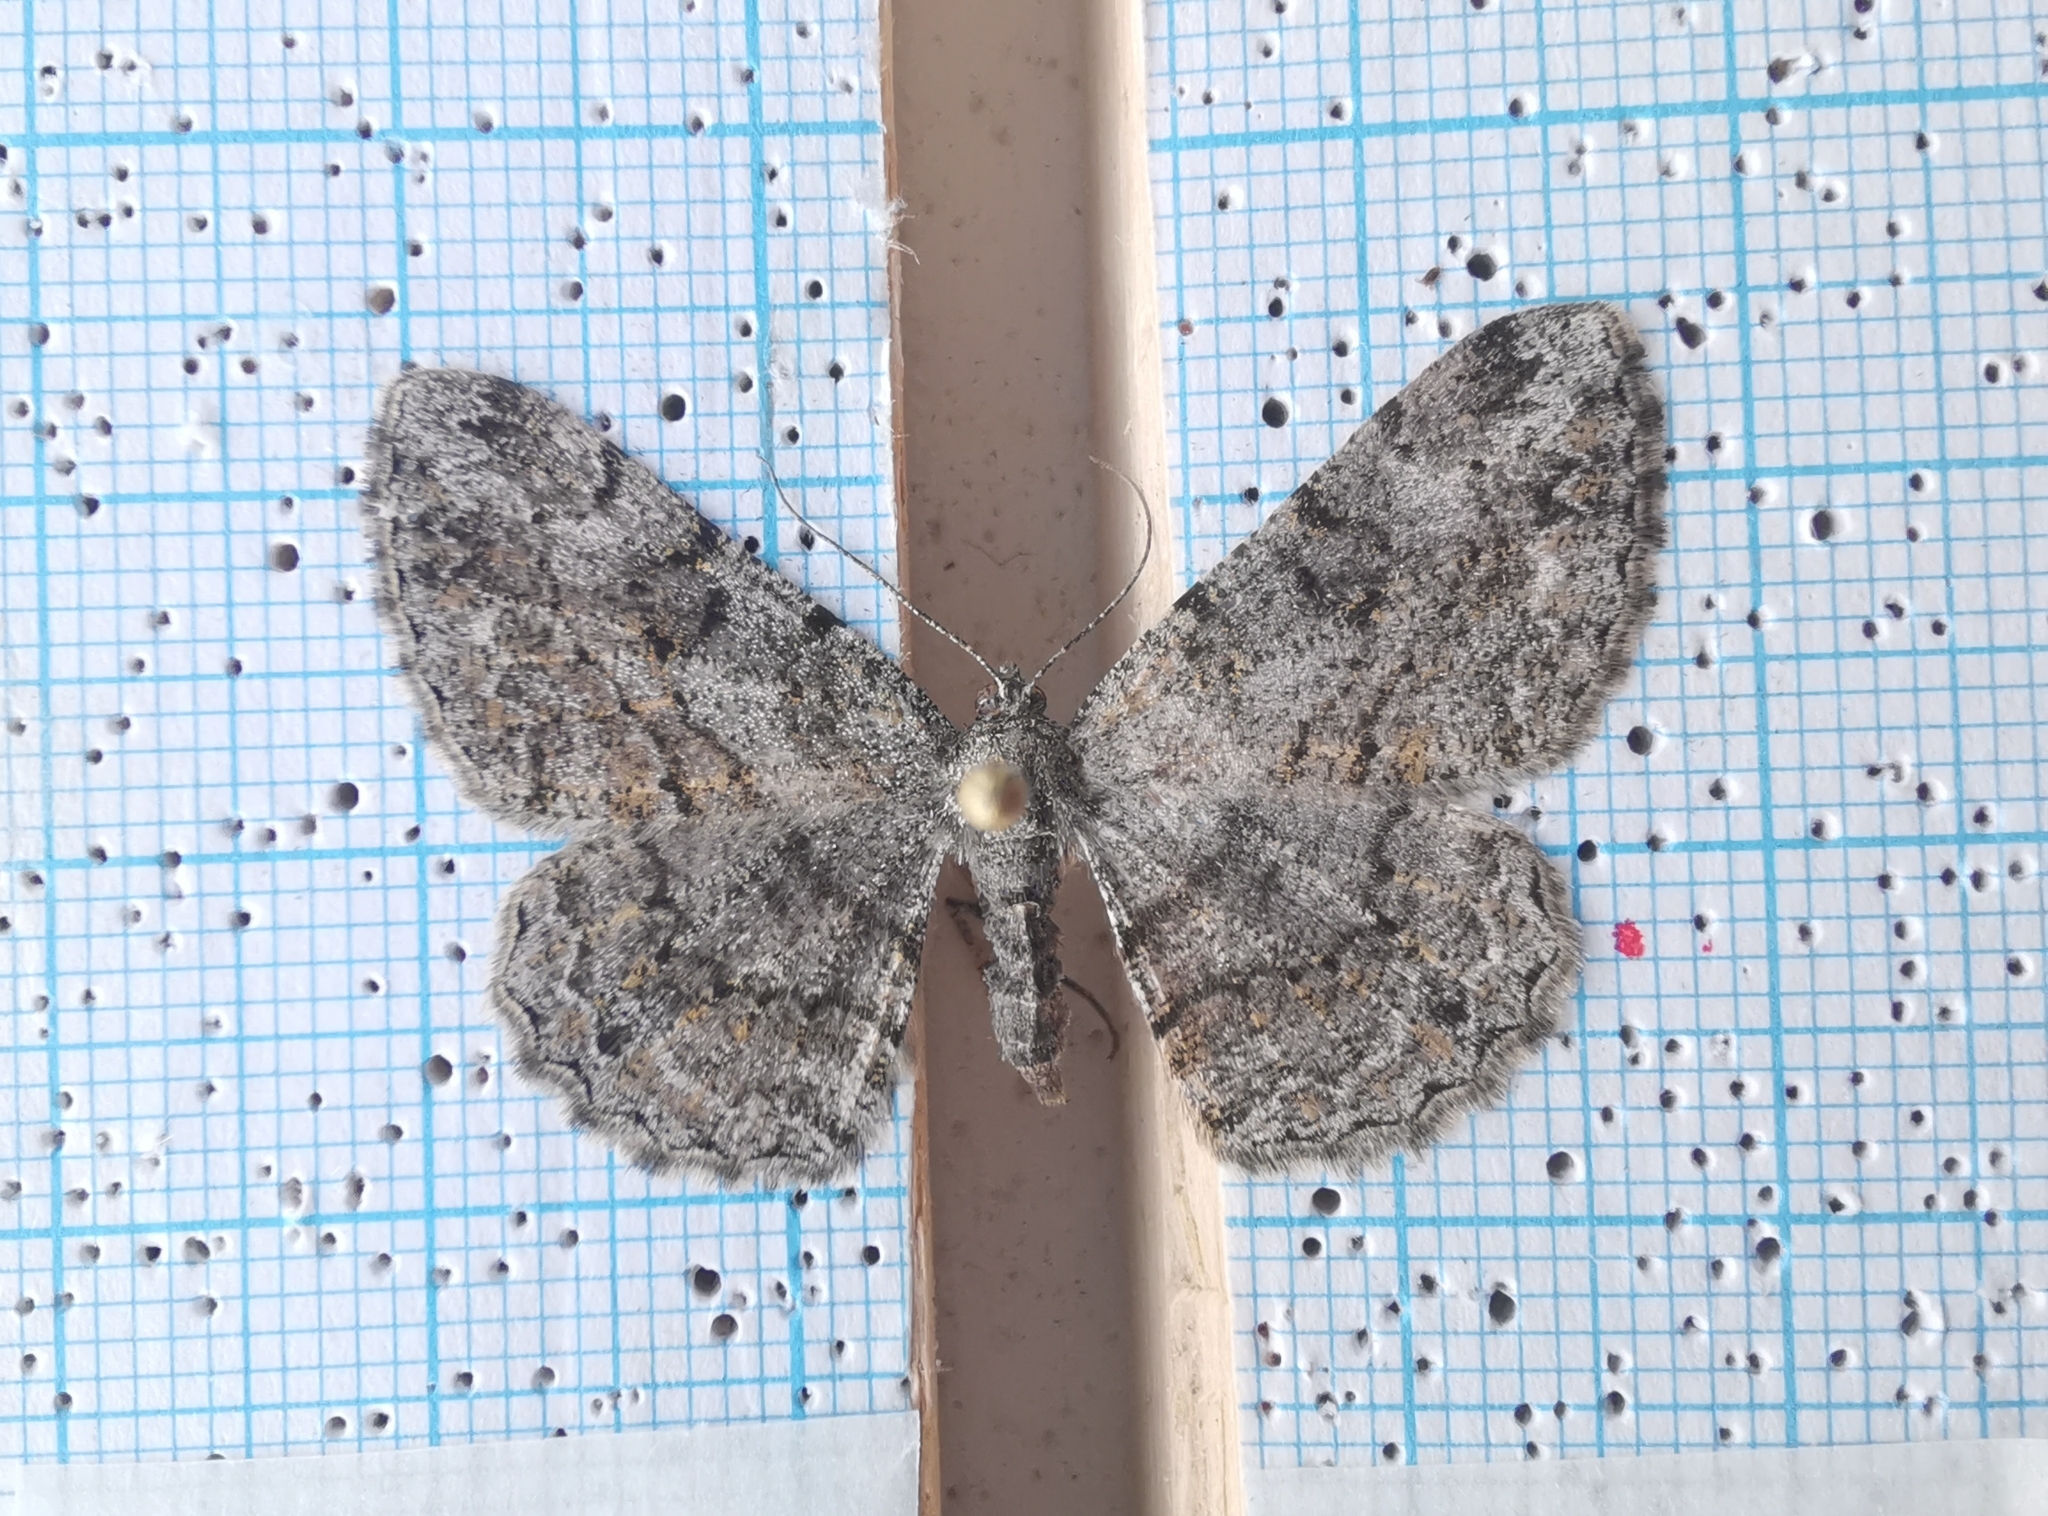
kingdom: Animalia
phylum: Arthropoda
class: Insecta
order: Lepidoptera
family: Geometridae
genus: Peribatodes
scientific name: Peribatodes rhomboidaria
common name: Willow beauty
